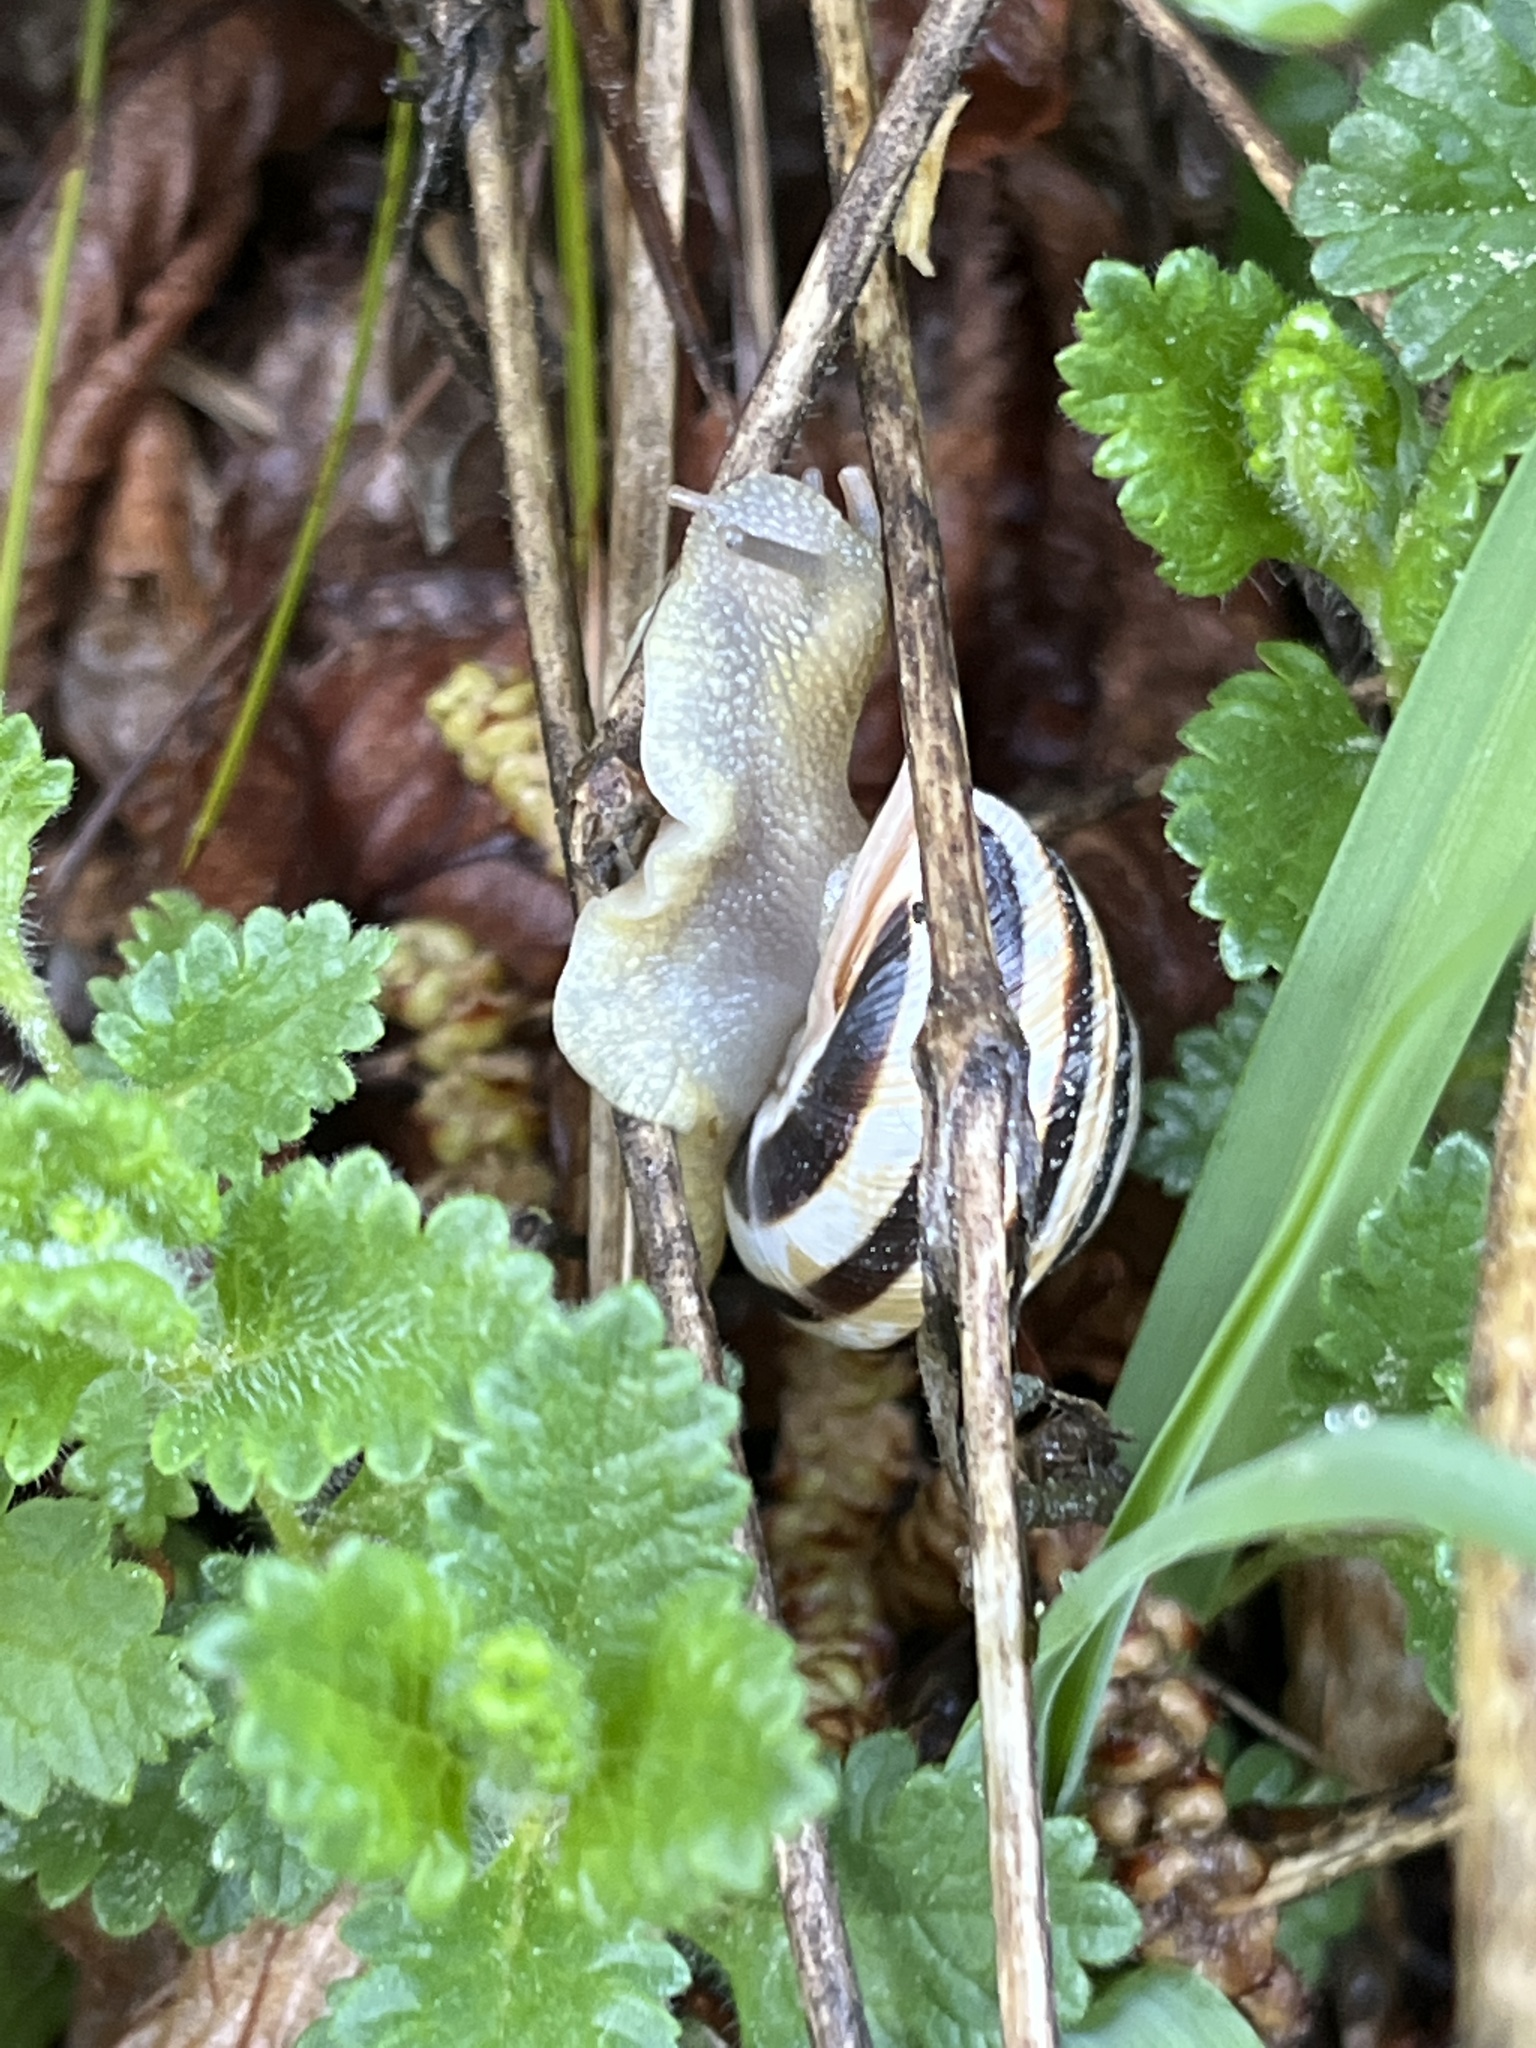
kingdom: Animalia
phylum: Mollusca
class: Gastropoda
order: Stylommatophora
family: Helicidae
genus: Caucasotachea
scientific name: Caucasotachea vindobonensis
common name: European helicid land snail
